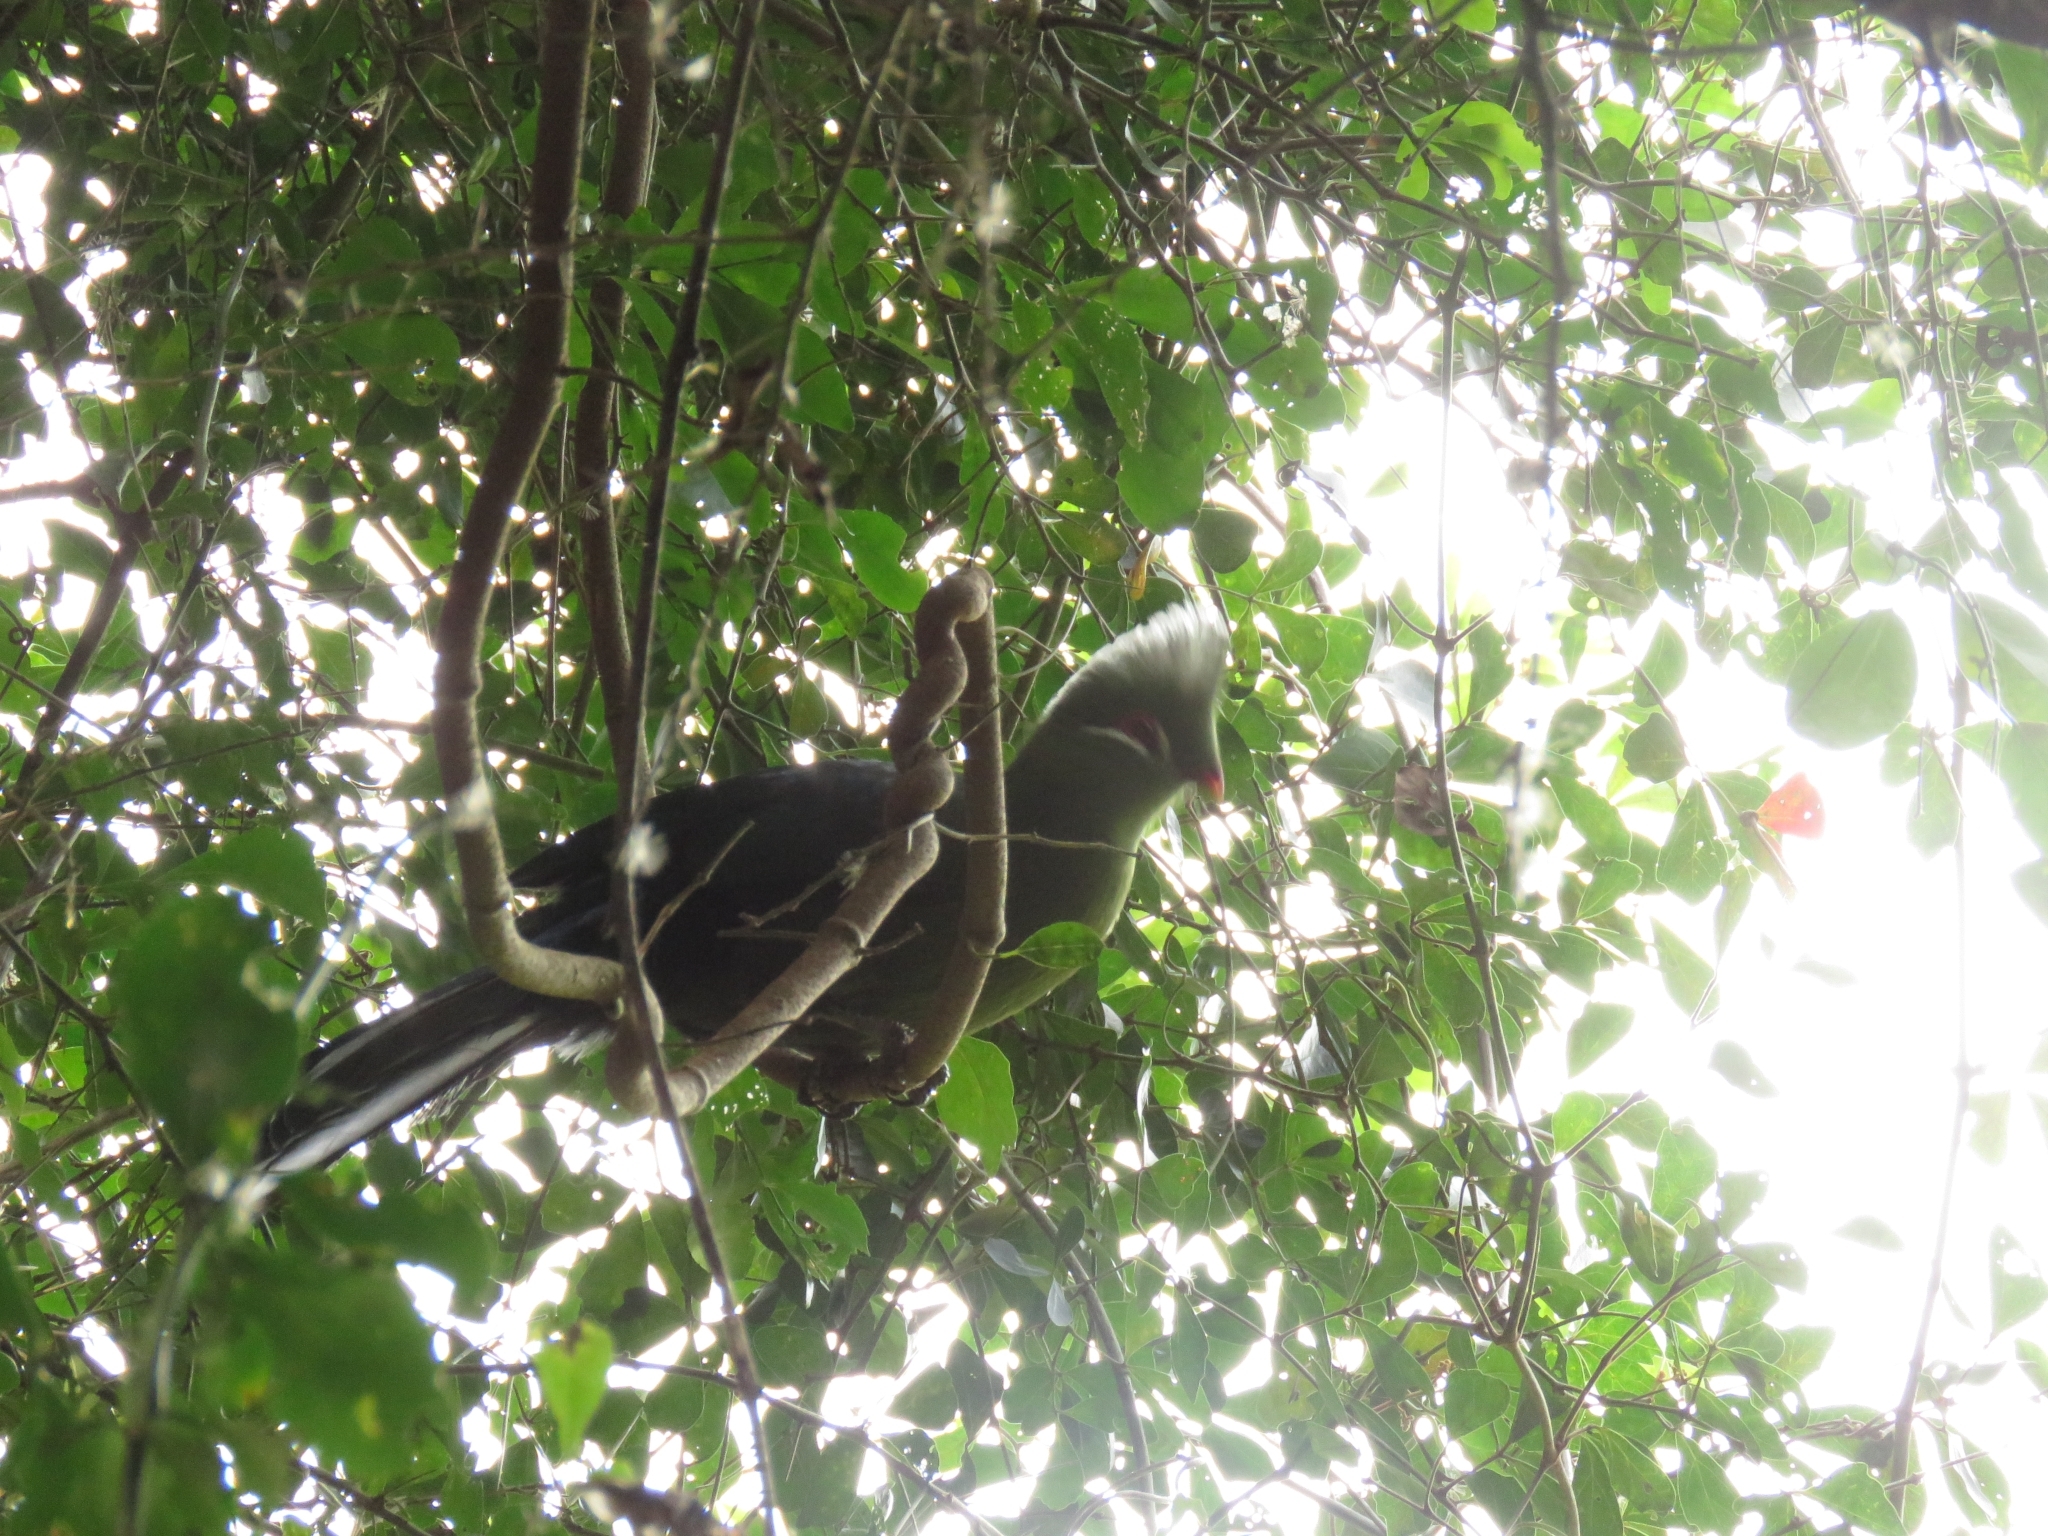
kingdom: Animalia
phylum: Chordata
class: Aves
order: Musophagiformes
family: Musophagidae
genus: Tauraco
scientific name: Tauraco corythaix
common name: Knysna turaco
